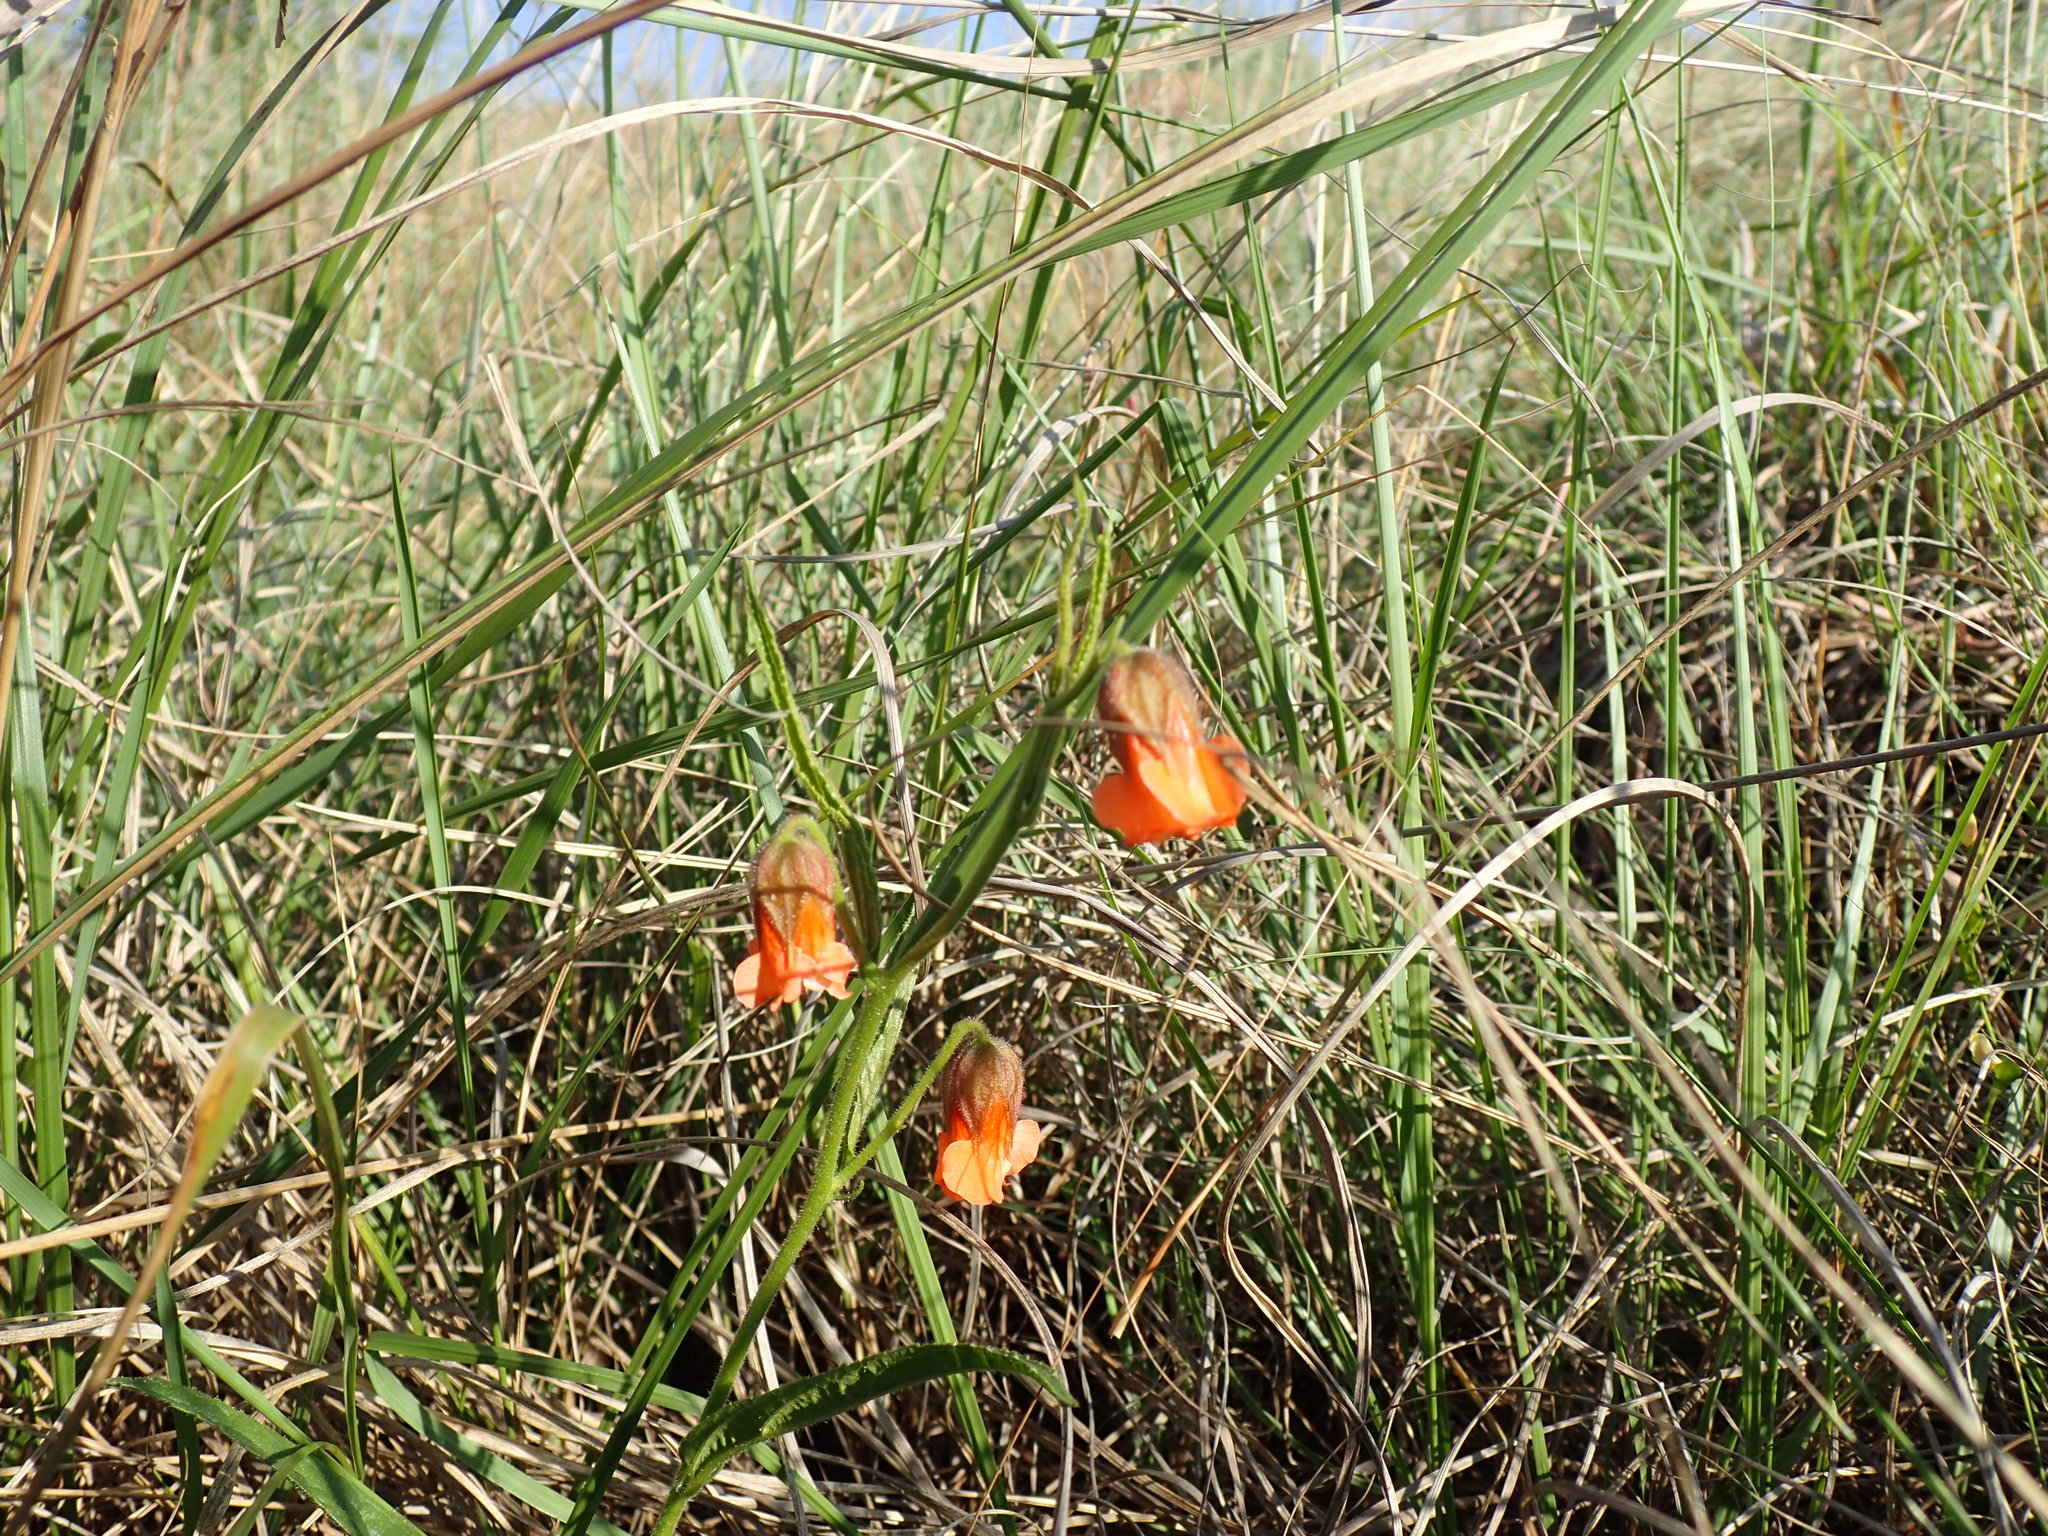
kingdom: Plantae
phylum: Tracheophyta
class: Magnoliopsida
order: Malvales
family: Malvaceae
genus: Hermannia
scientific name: Hermannia cristata
